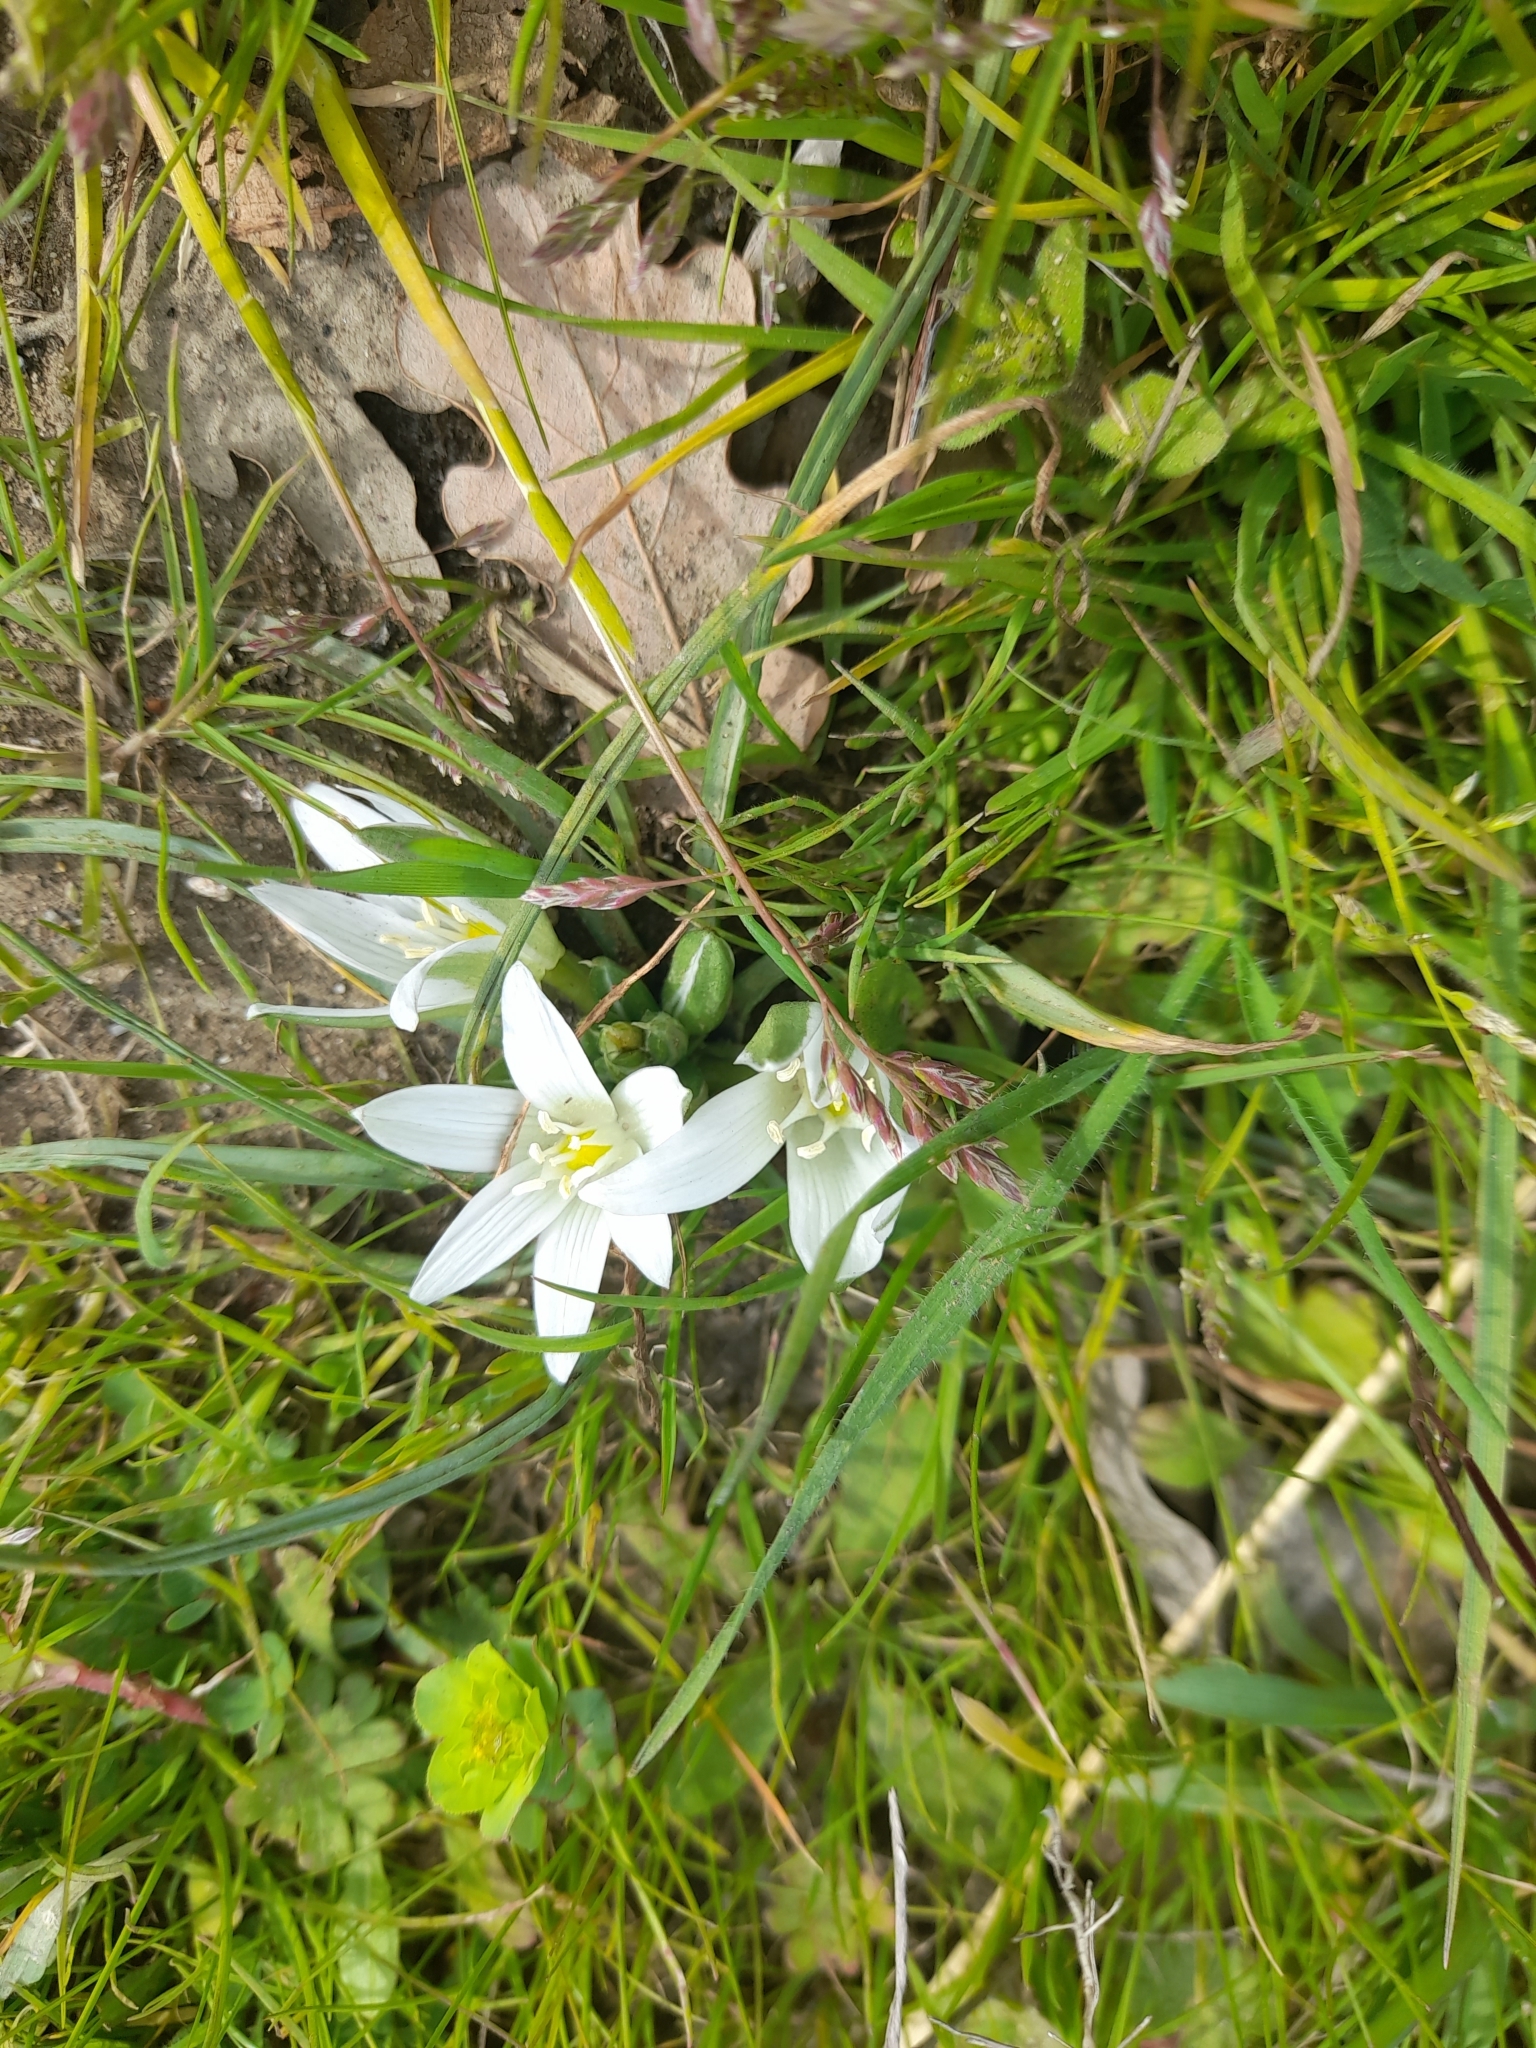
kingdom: Plantae
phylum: Tracheophyta
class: Liliopsida
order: Asparagales
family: Asparagaceae
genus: Ornithogalum
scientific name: Ornithogalum exscapum
